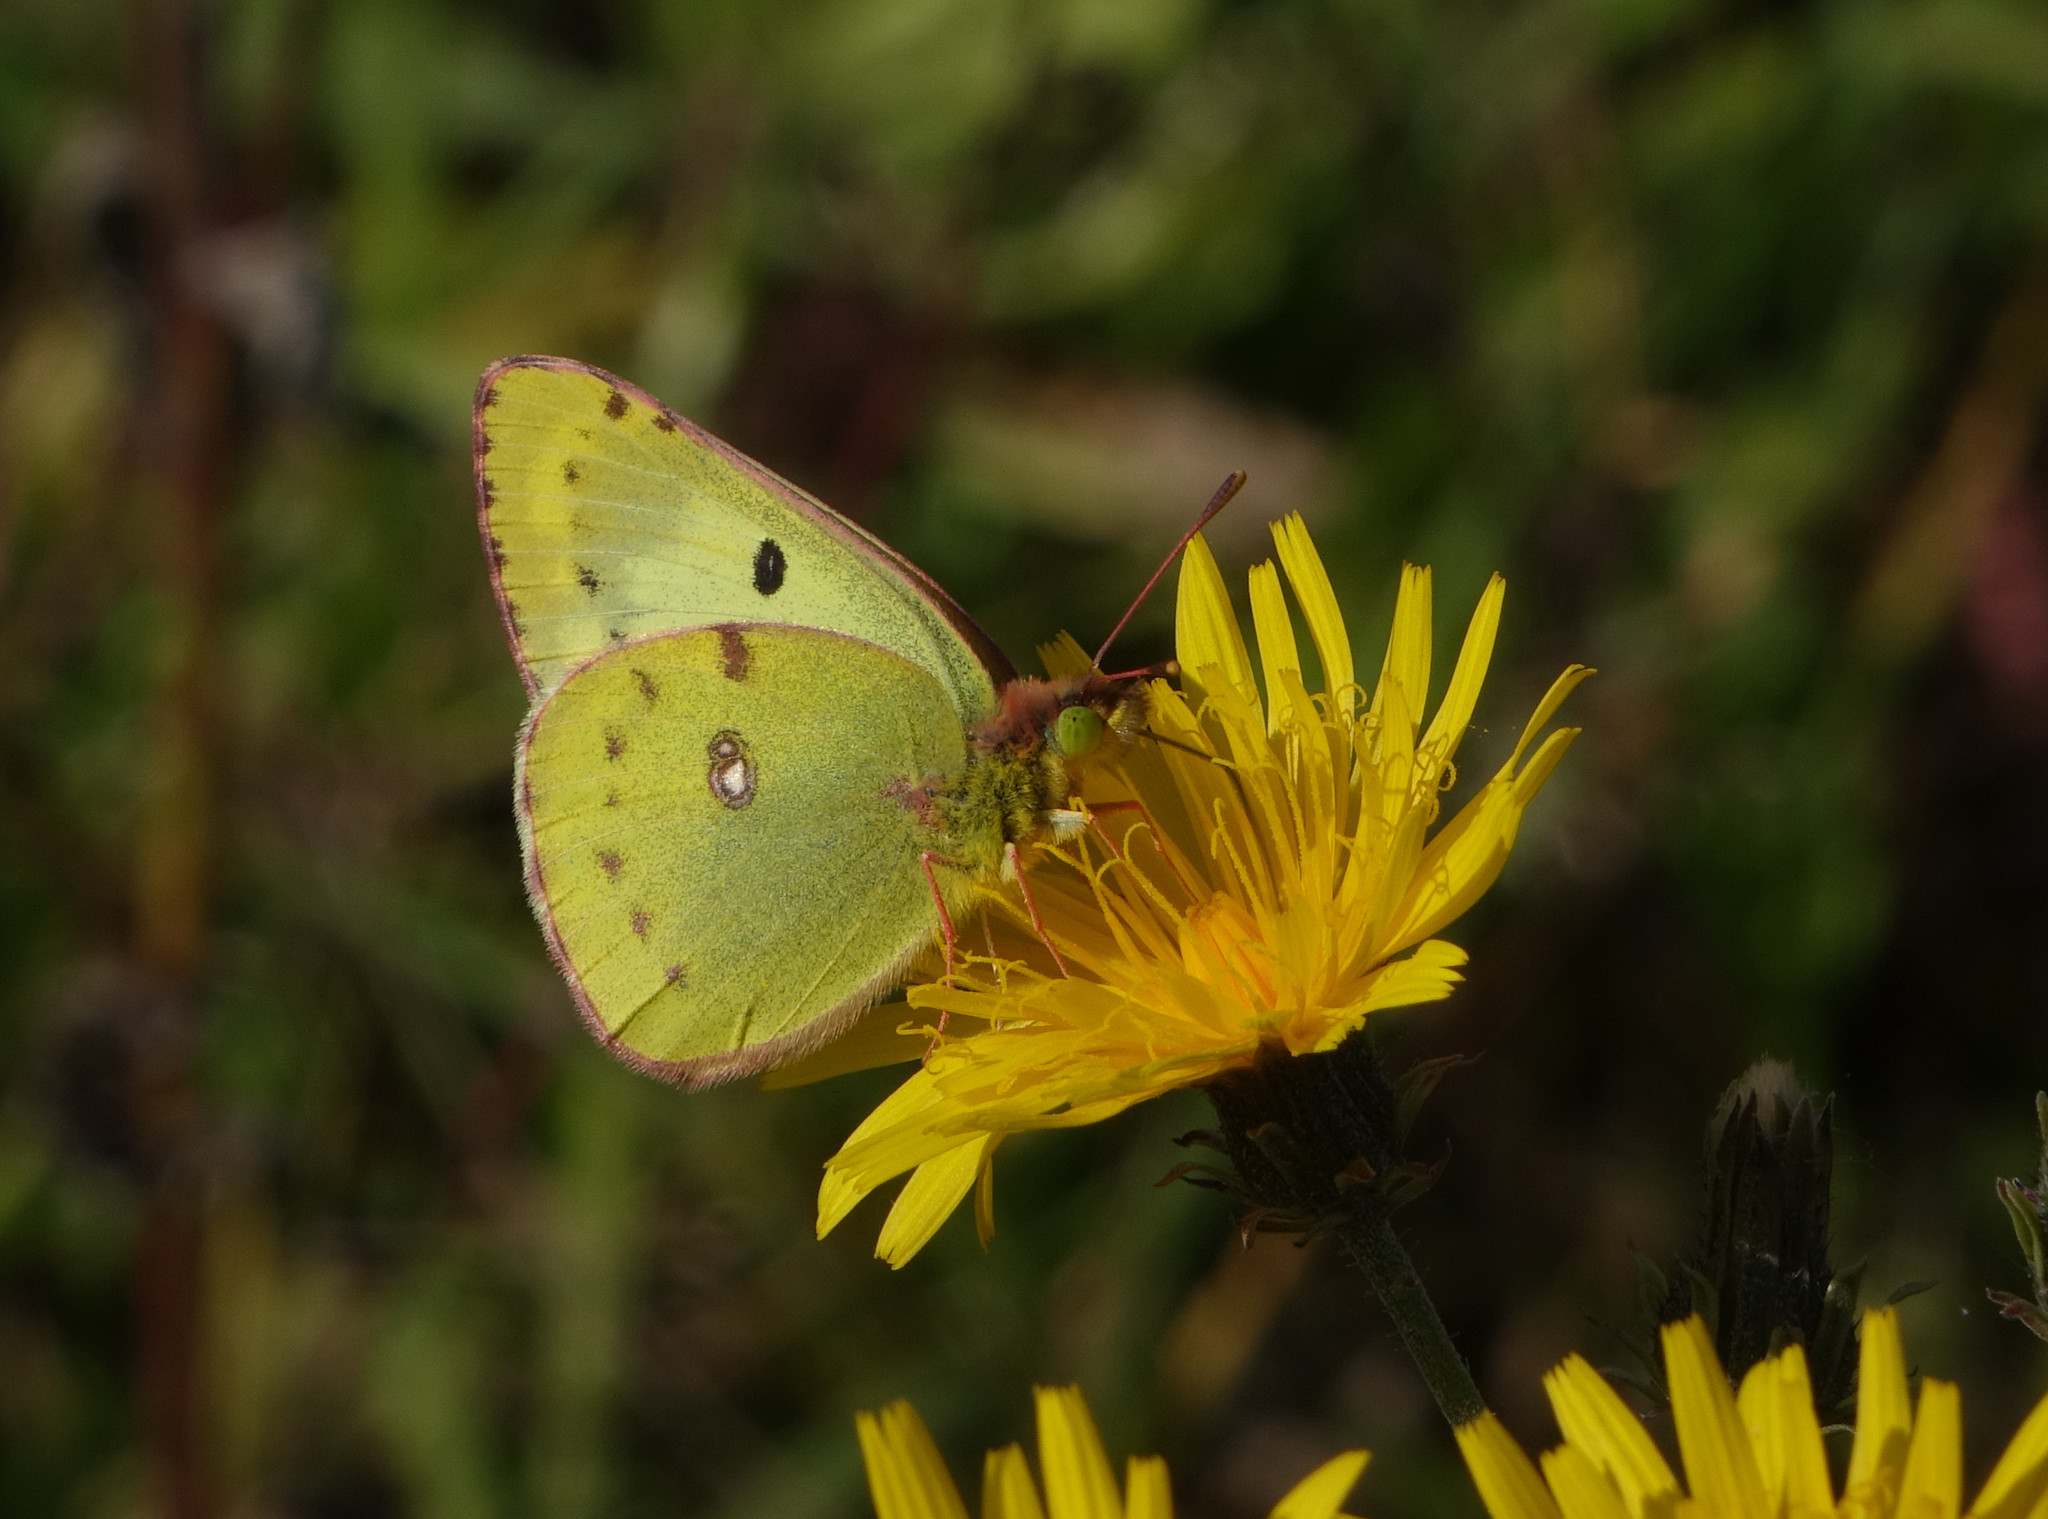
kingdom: Animalia
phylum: Arthropoda
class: Insecta
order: Lepidoptera
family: Pieridae
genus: Colias
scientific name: Colias hyale
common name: Pale clouded yellow
